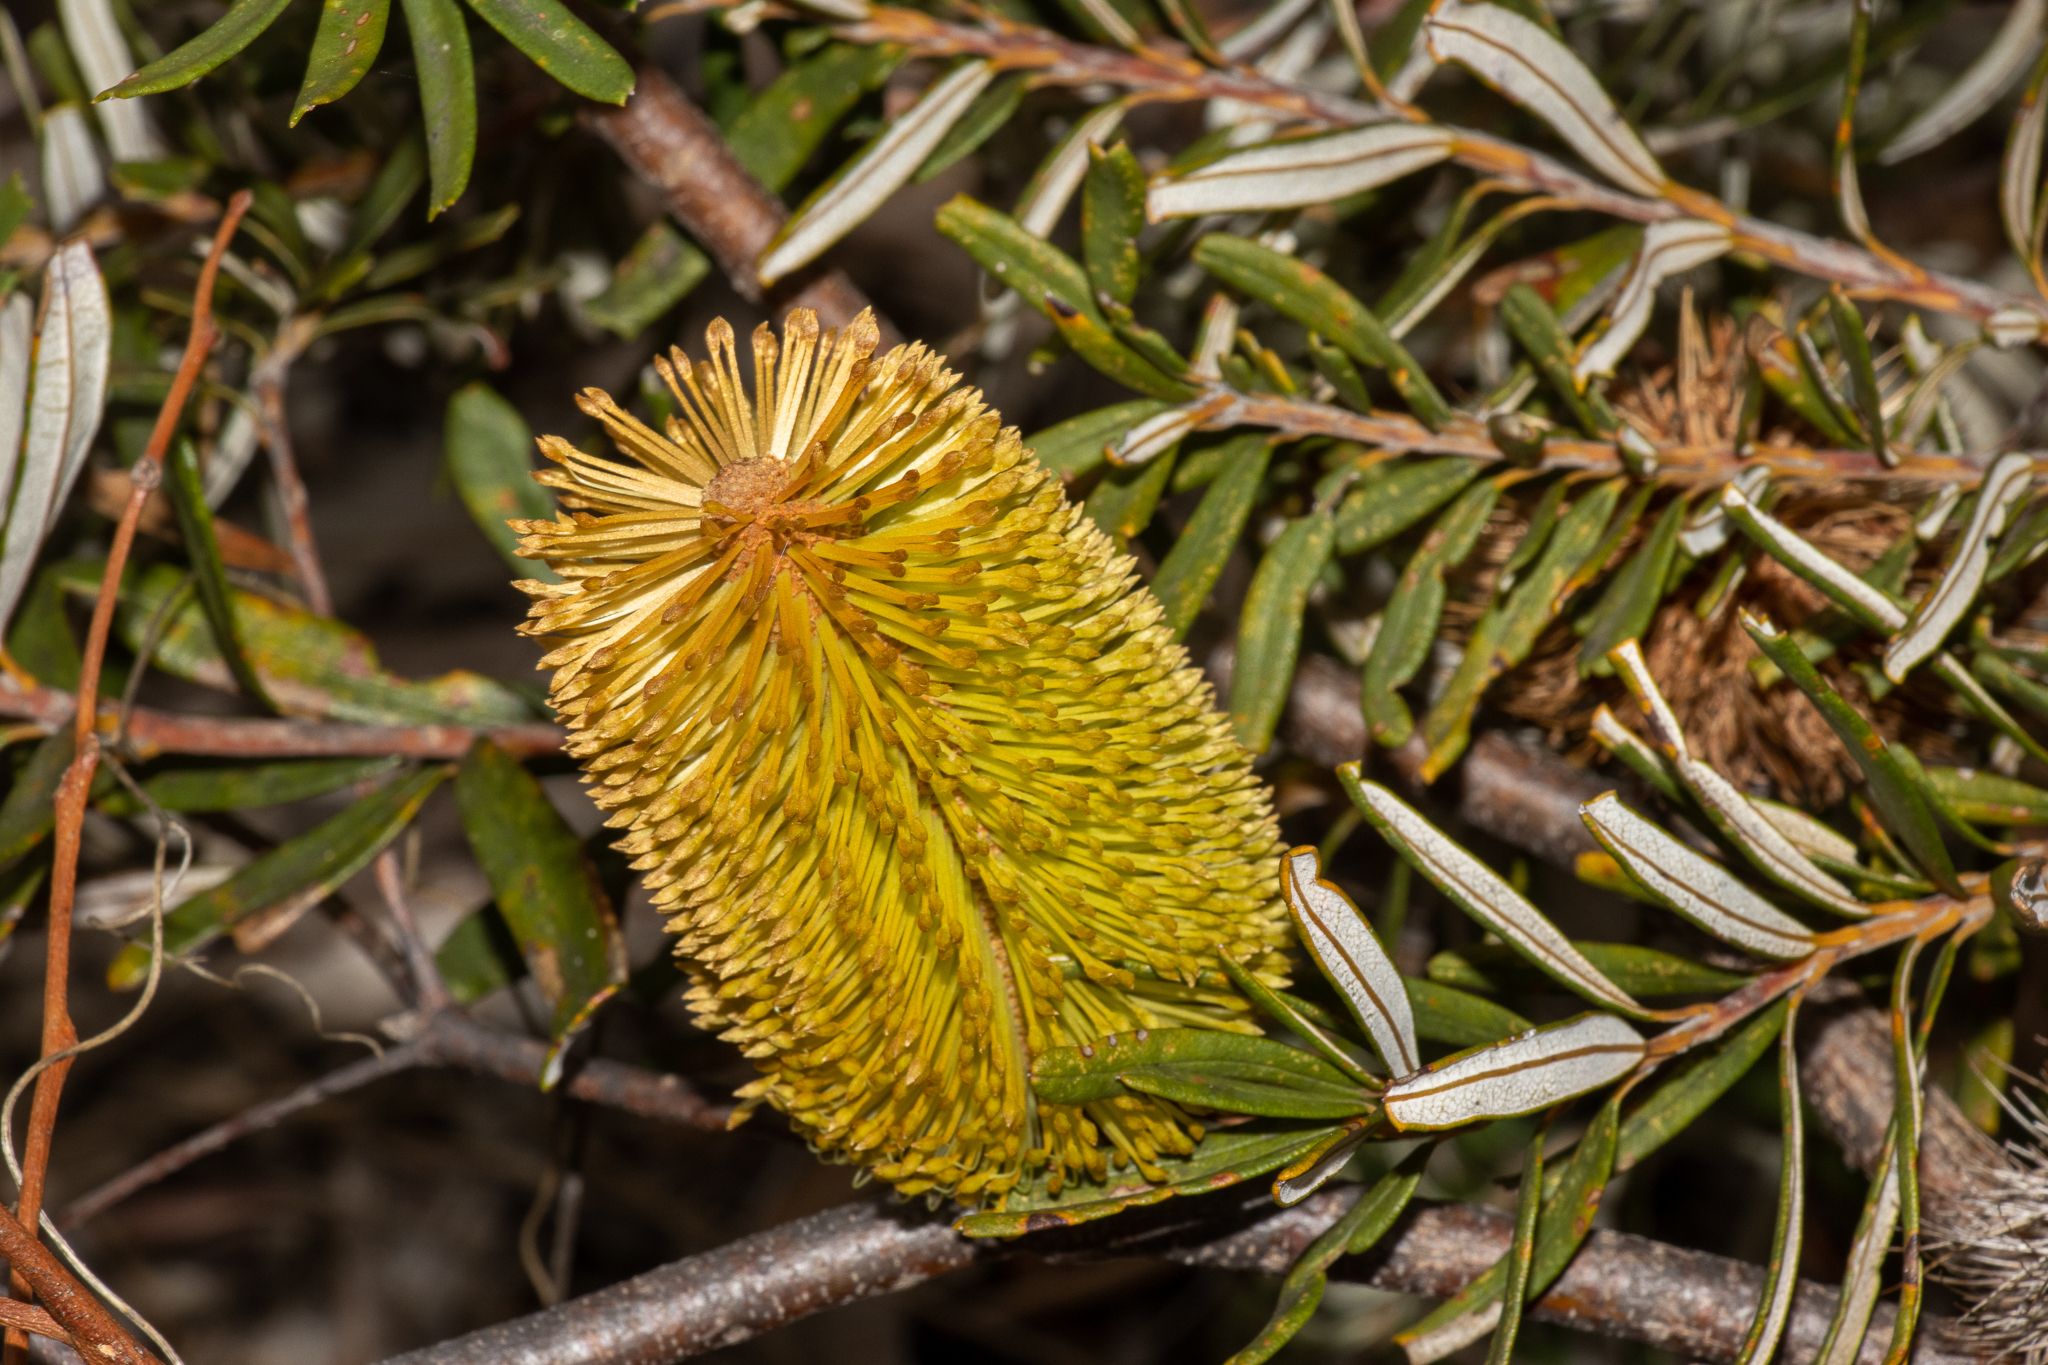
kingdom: Plantae
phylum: Tracheophyta
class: Magnoliopsida
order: Proteales
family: Proteaceae
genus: Banksia
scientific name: Banksia marginata
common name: Silver banksia
